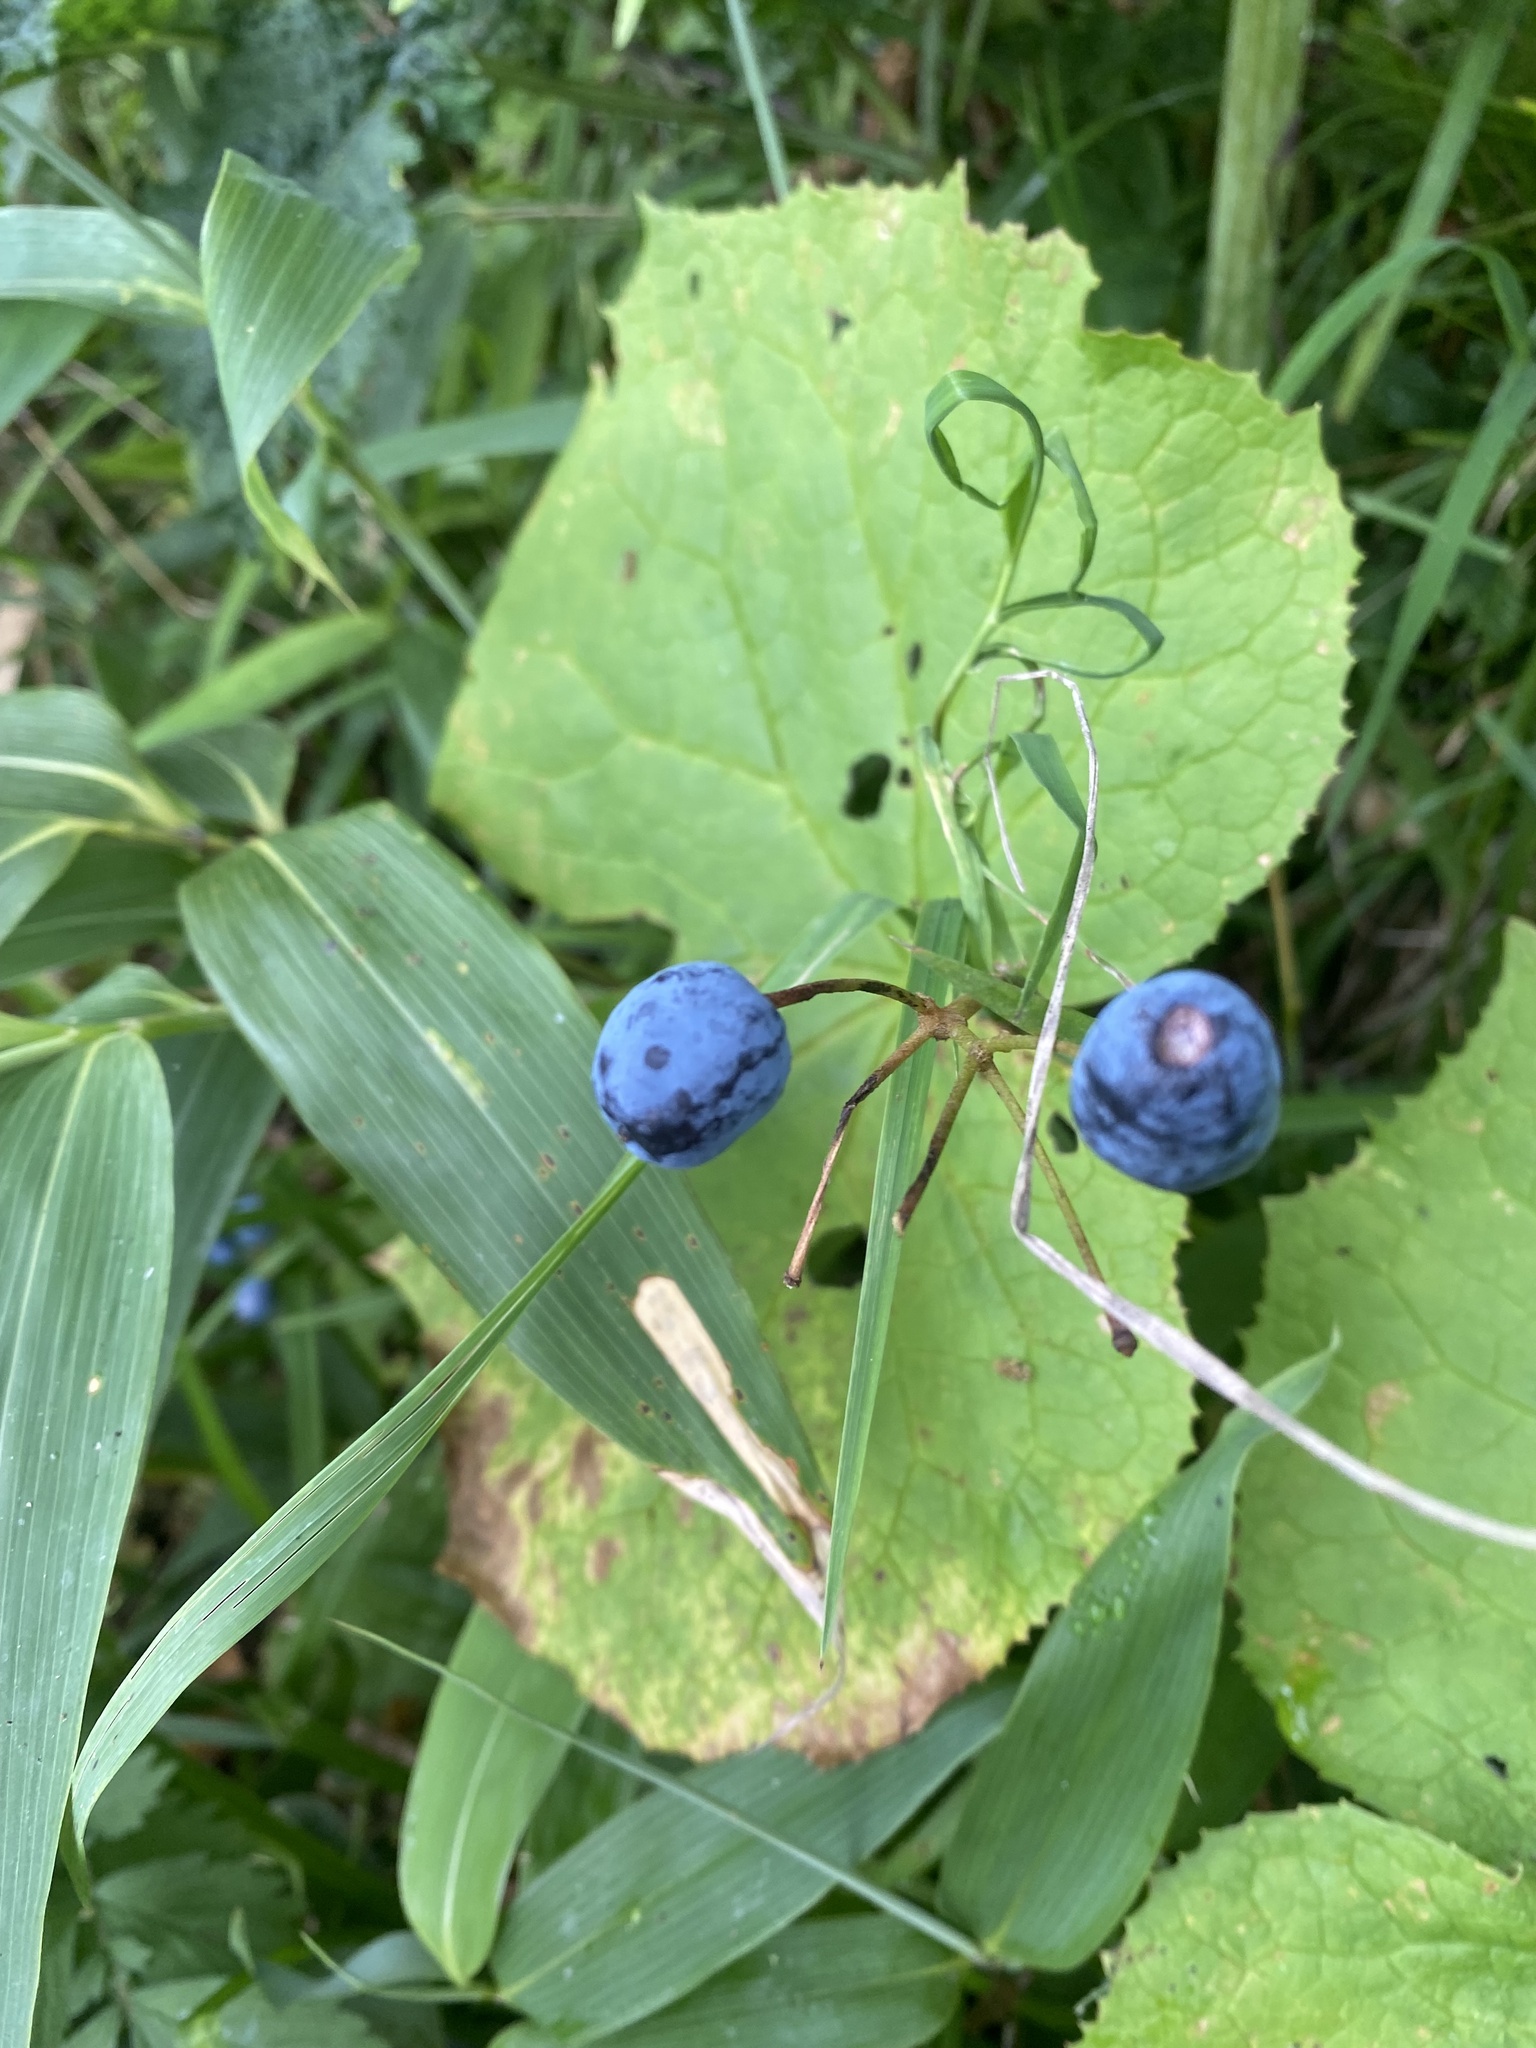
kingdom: Plantae
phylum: Tracheophyta
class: Magnoliopsida
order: Ranunculales
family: Berberidaceae
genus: Diphylleia
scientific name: Diphylleia grayi
